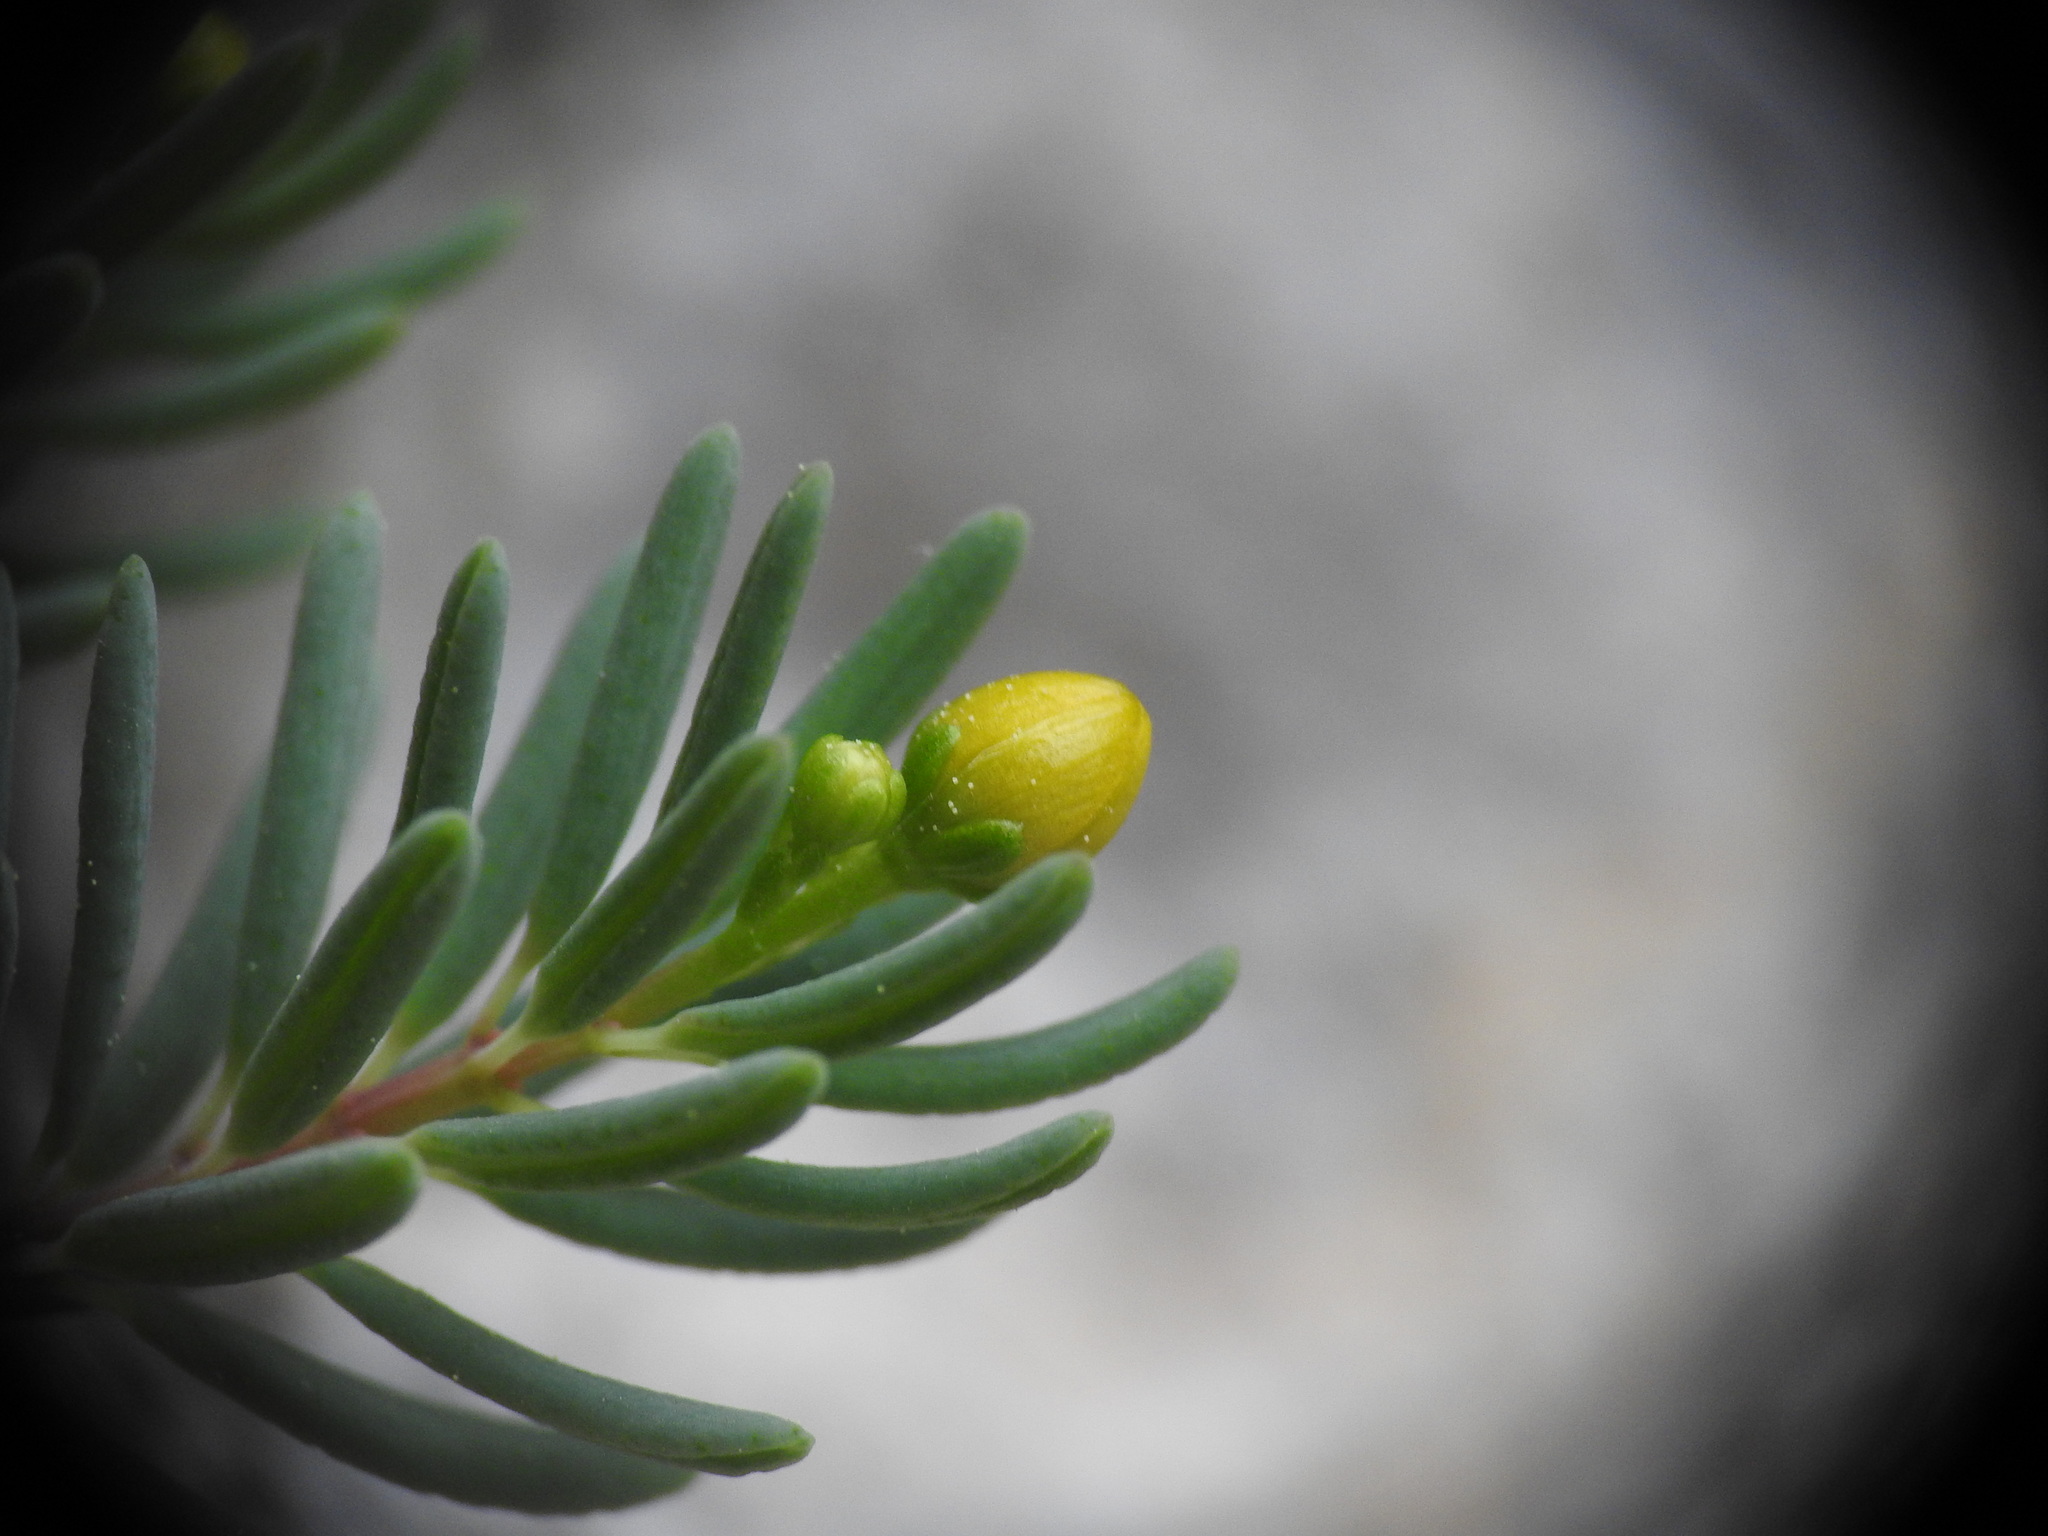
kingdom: Plantae
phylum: Tracheophyta
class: Magnoliopsida
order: Malpighiales
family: Hypericaceae
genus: Hypericum
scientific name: Hypericum jovis
